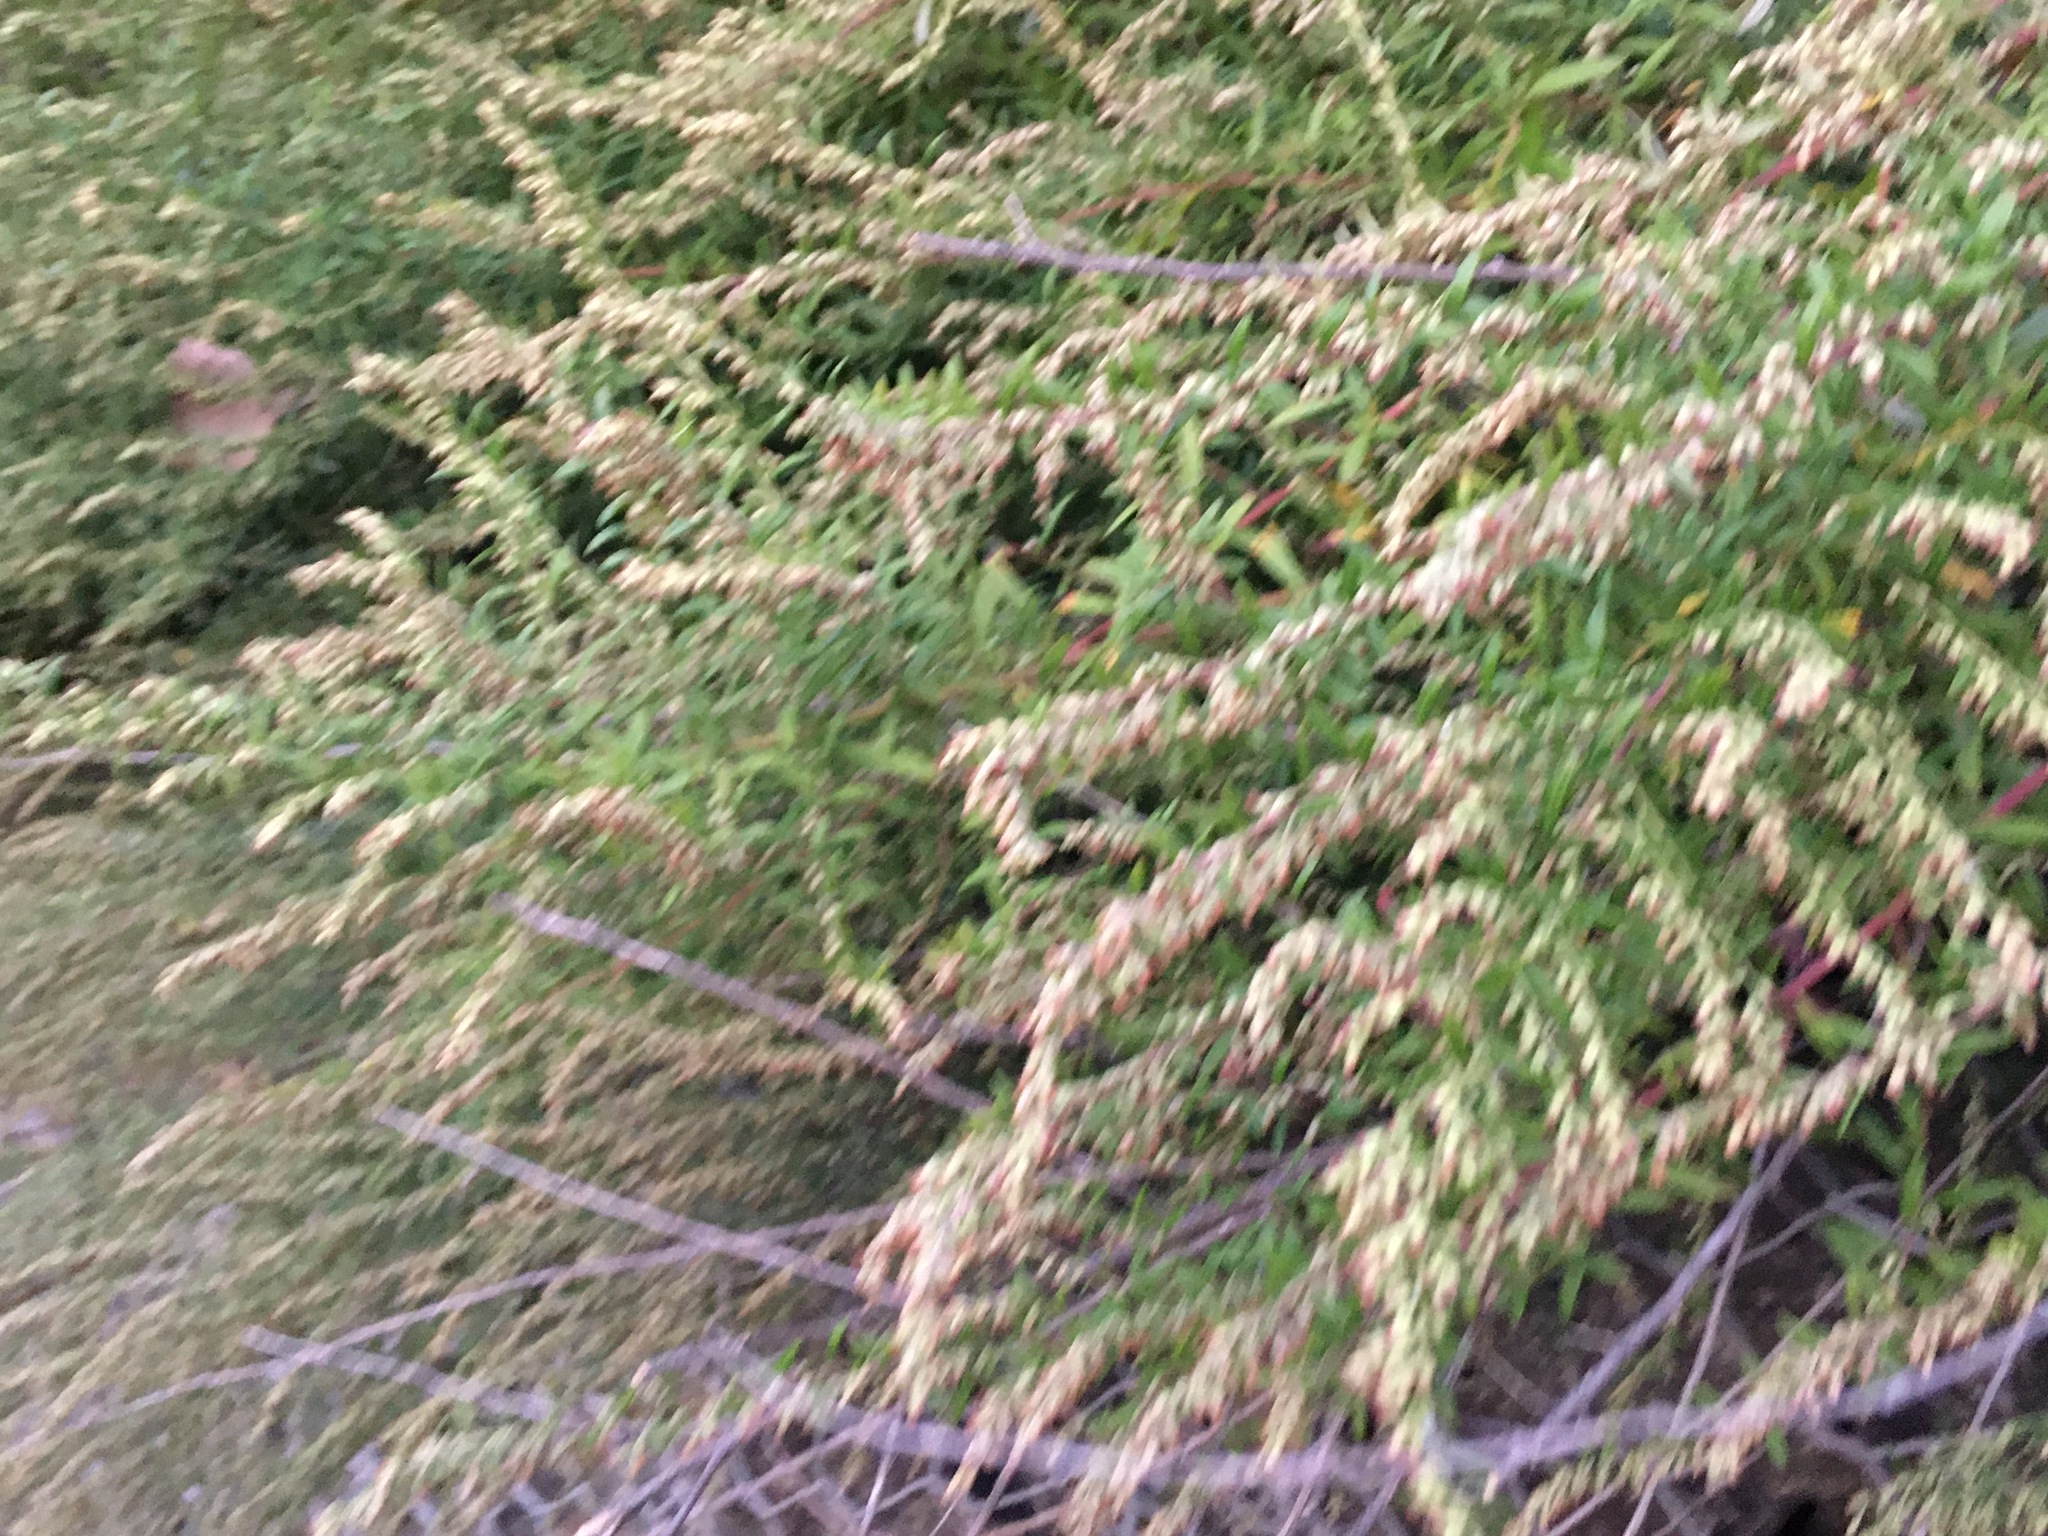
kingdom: Plantae
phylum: Tracheophyta
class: Magnoliopsida
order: Asterales
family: Asteraceae
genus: Artemisia
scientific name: Artemisia vulgaris
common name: Mugwort
